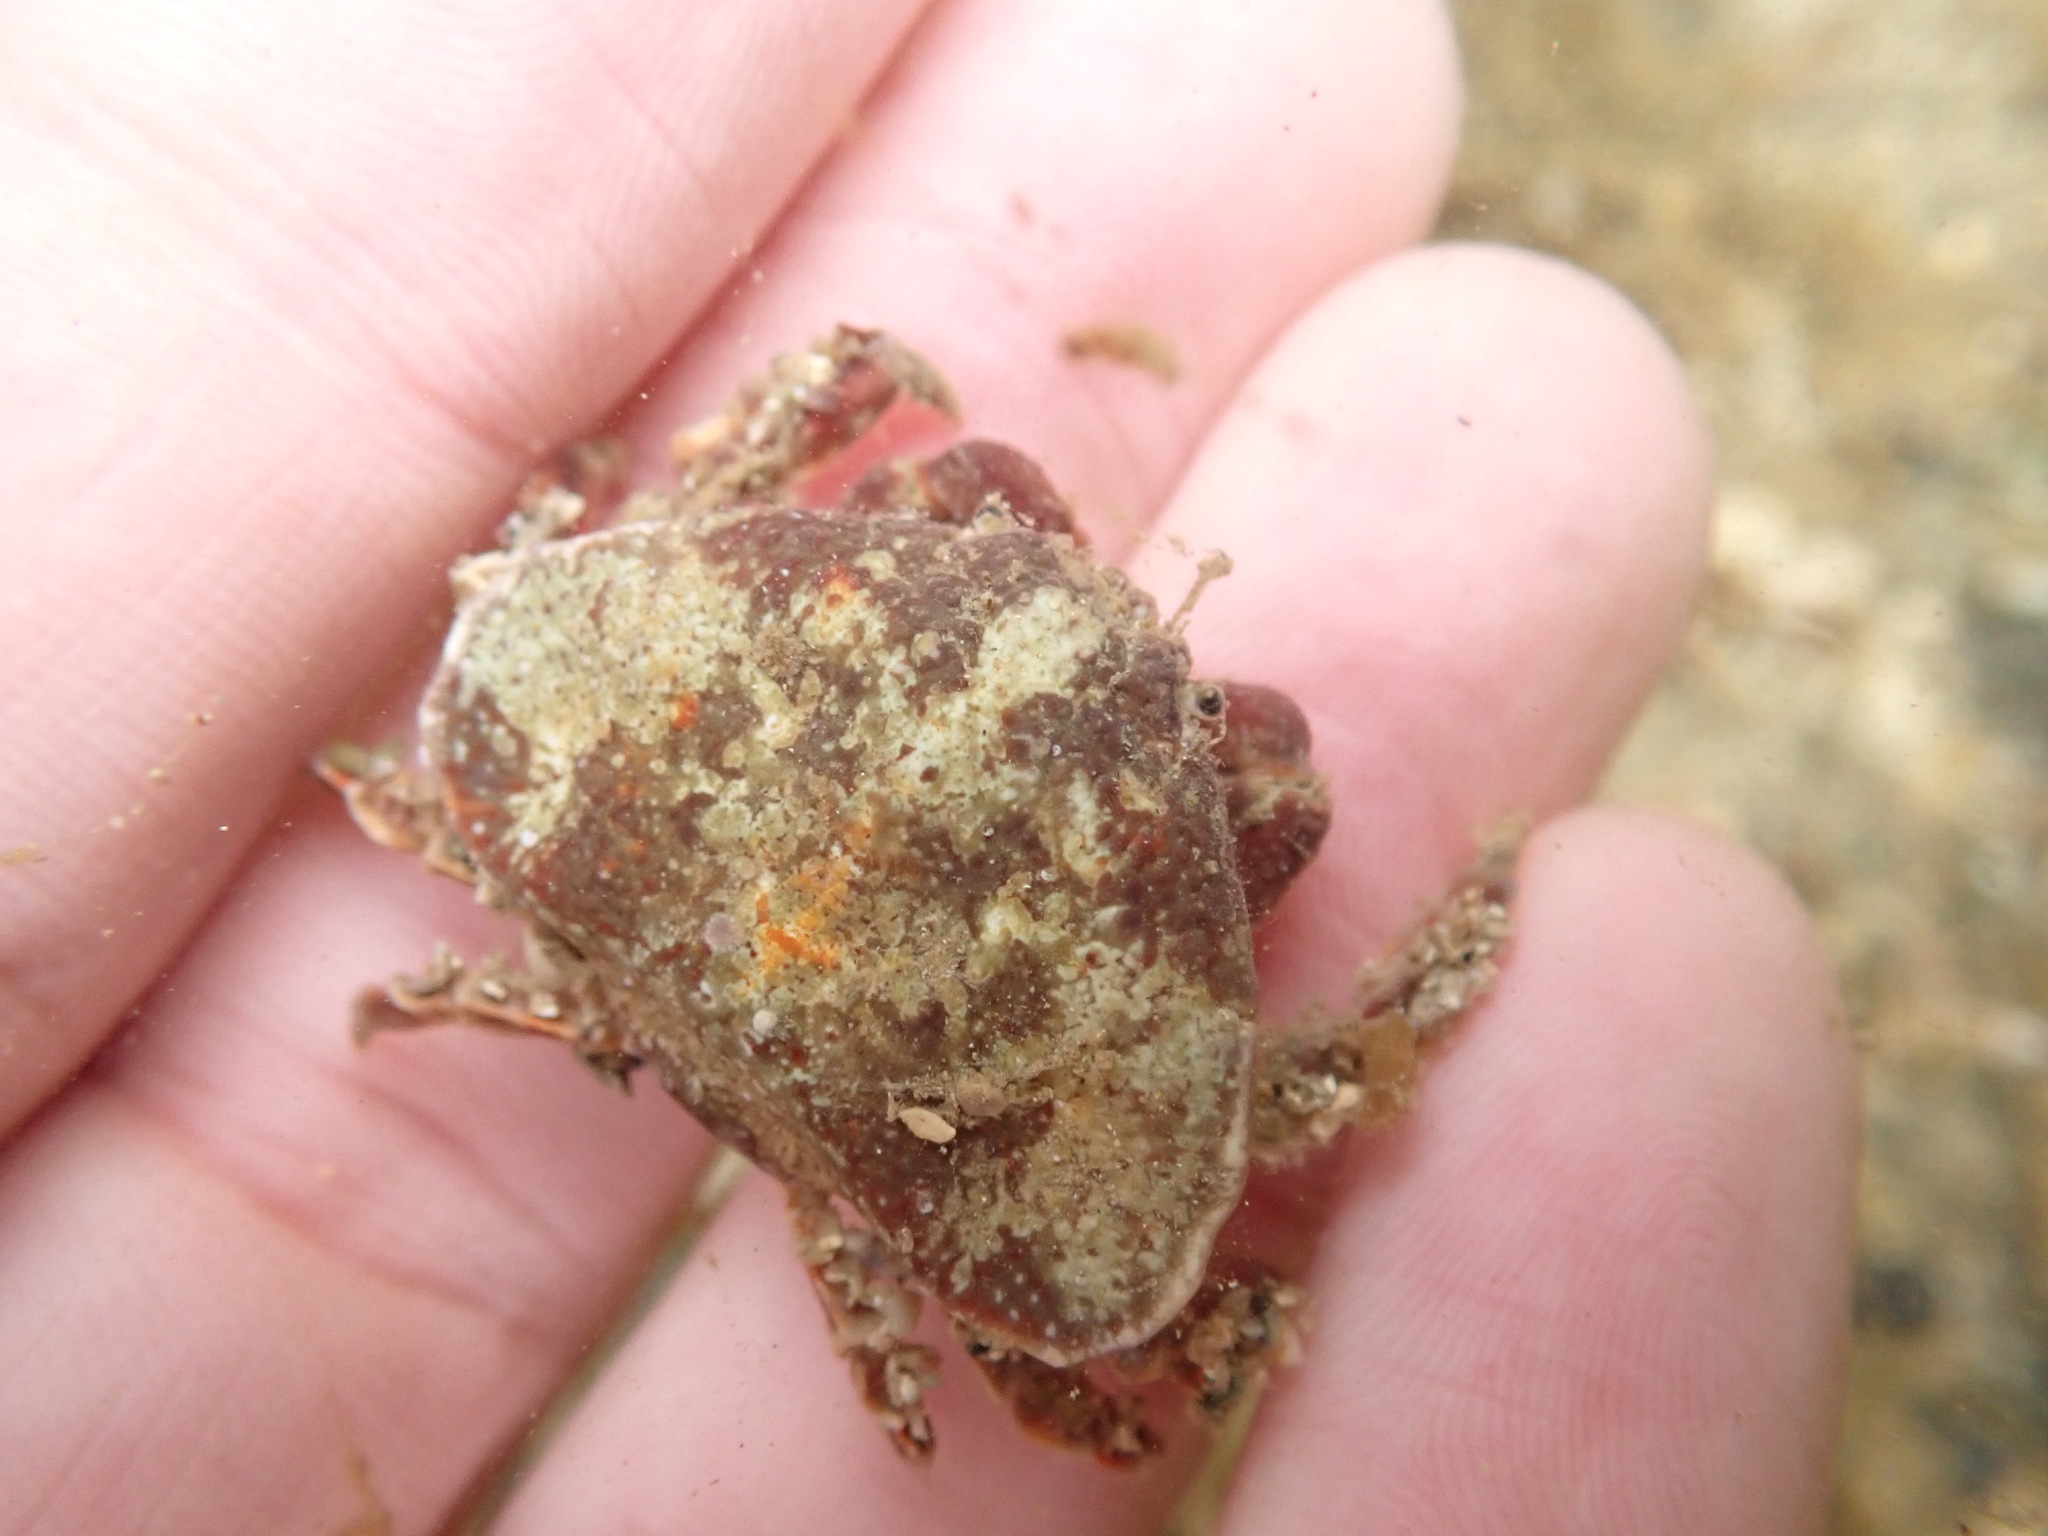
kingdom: Animalia
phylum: Arthropoda
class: Malacostraca
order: Decapoda
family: Majidae
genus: Eurynolambrus
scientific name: Eurynolambrus australis
